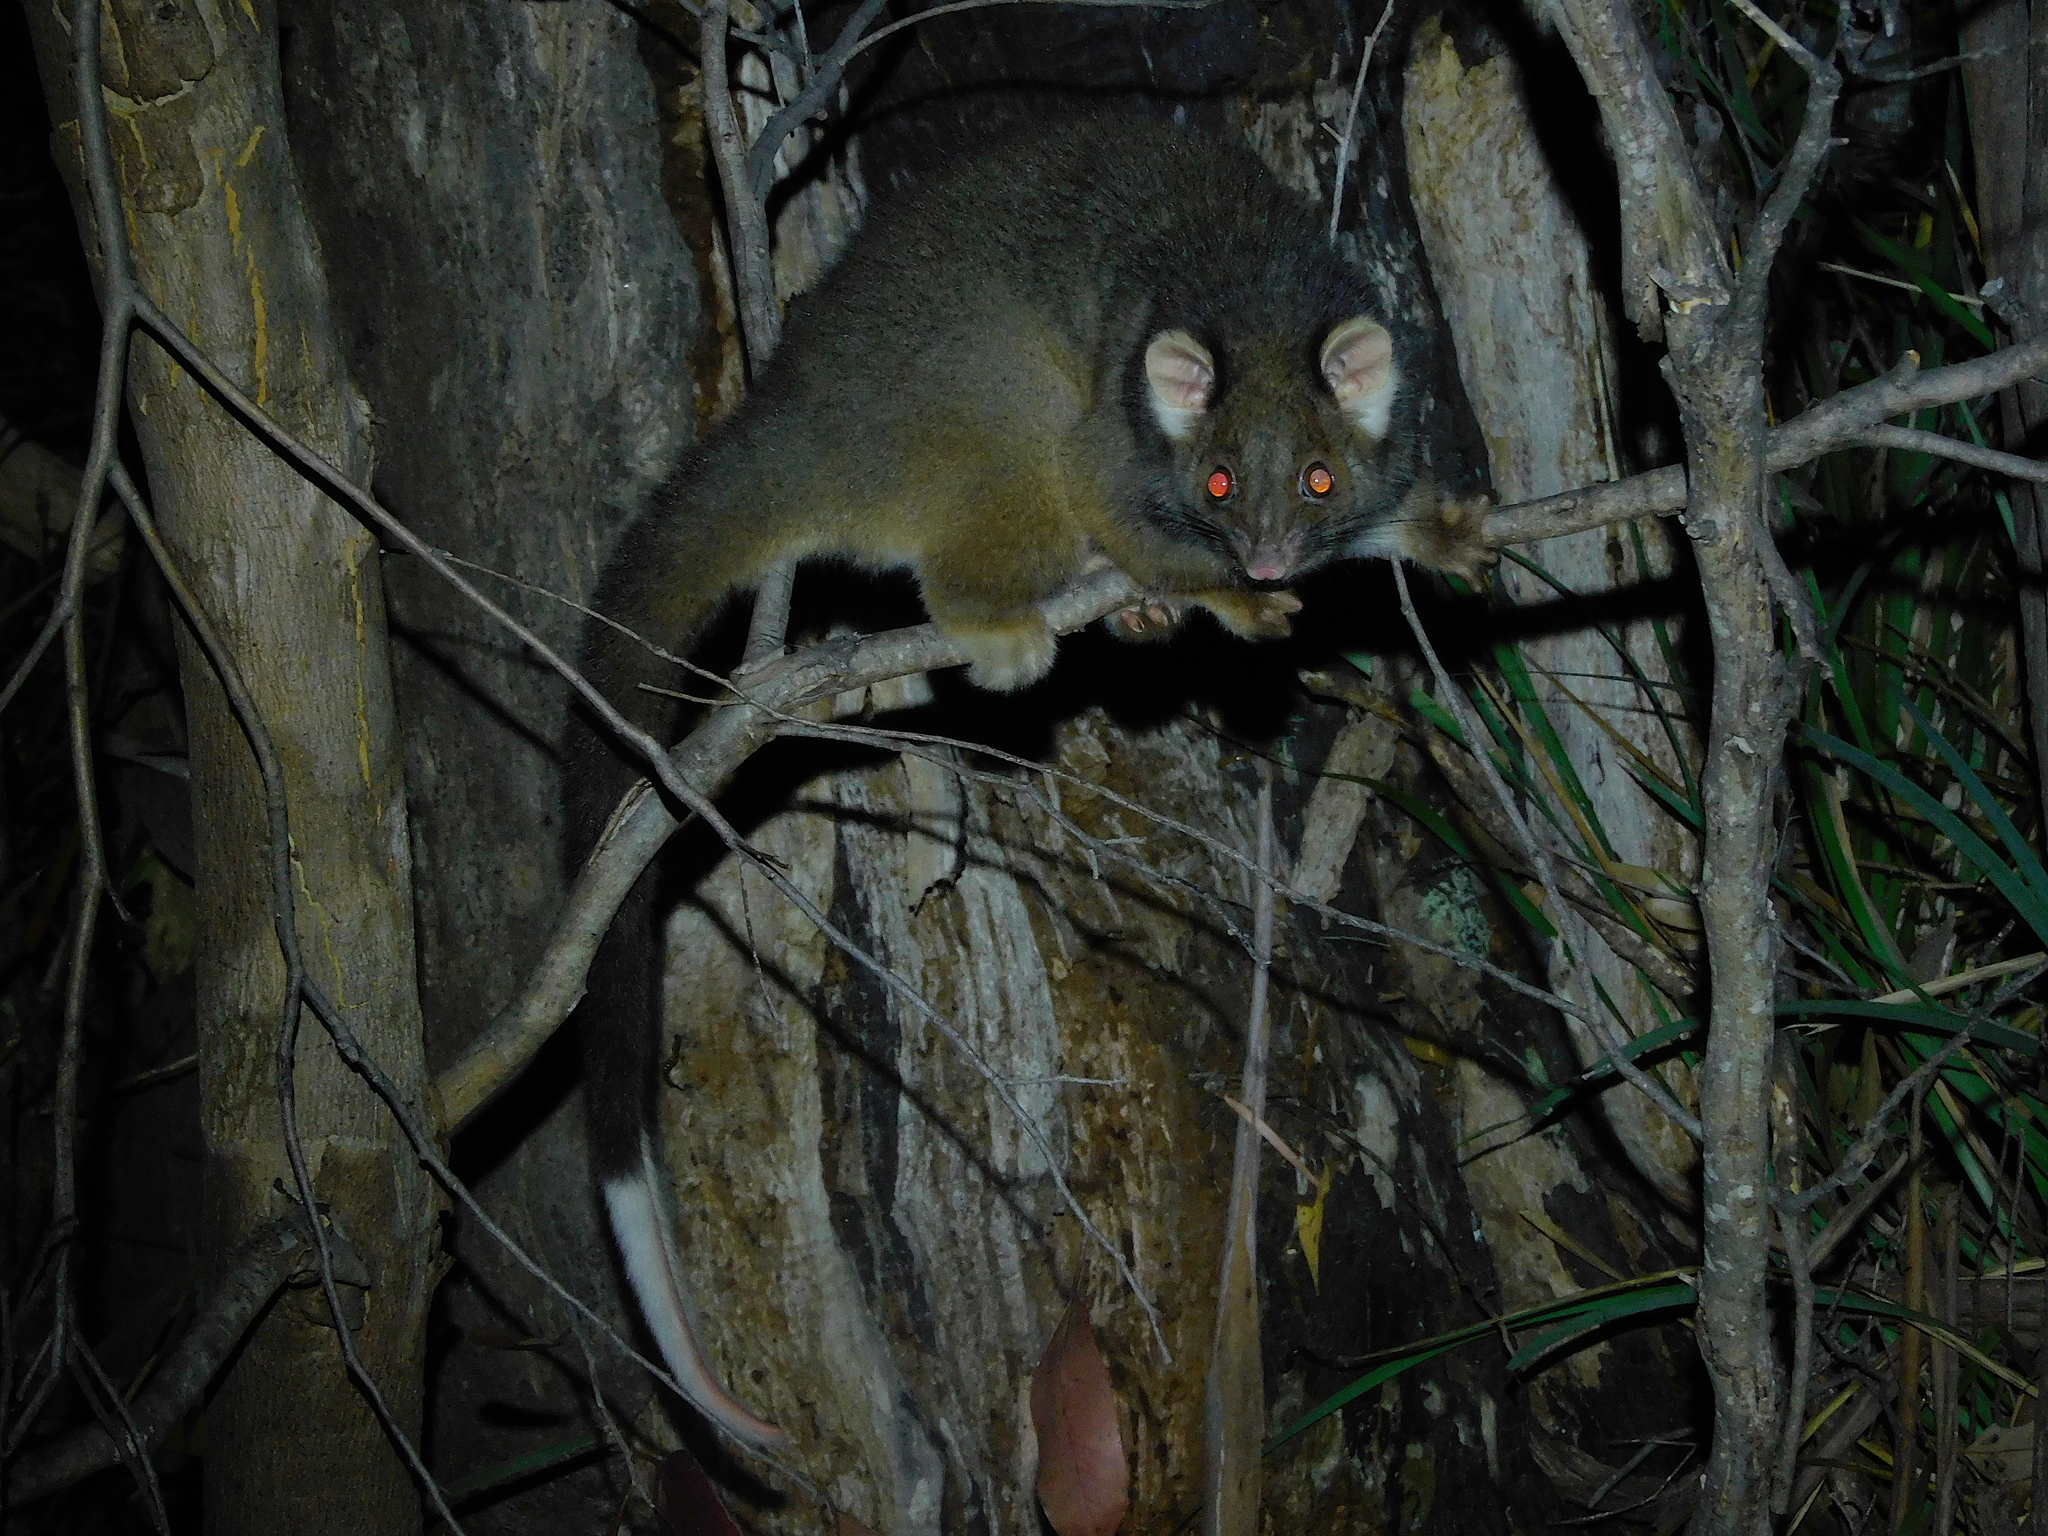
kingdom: Animalia
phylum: Chordata
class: Mammalia
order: Diprotodontia
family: Pseudocheiridae
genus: Pseudocheirus
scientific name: Pseudocheirus peregrinus
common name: Common ringtail possum
